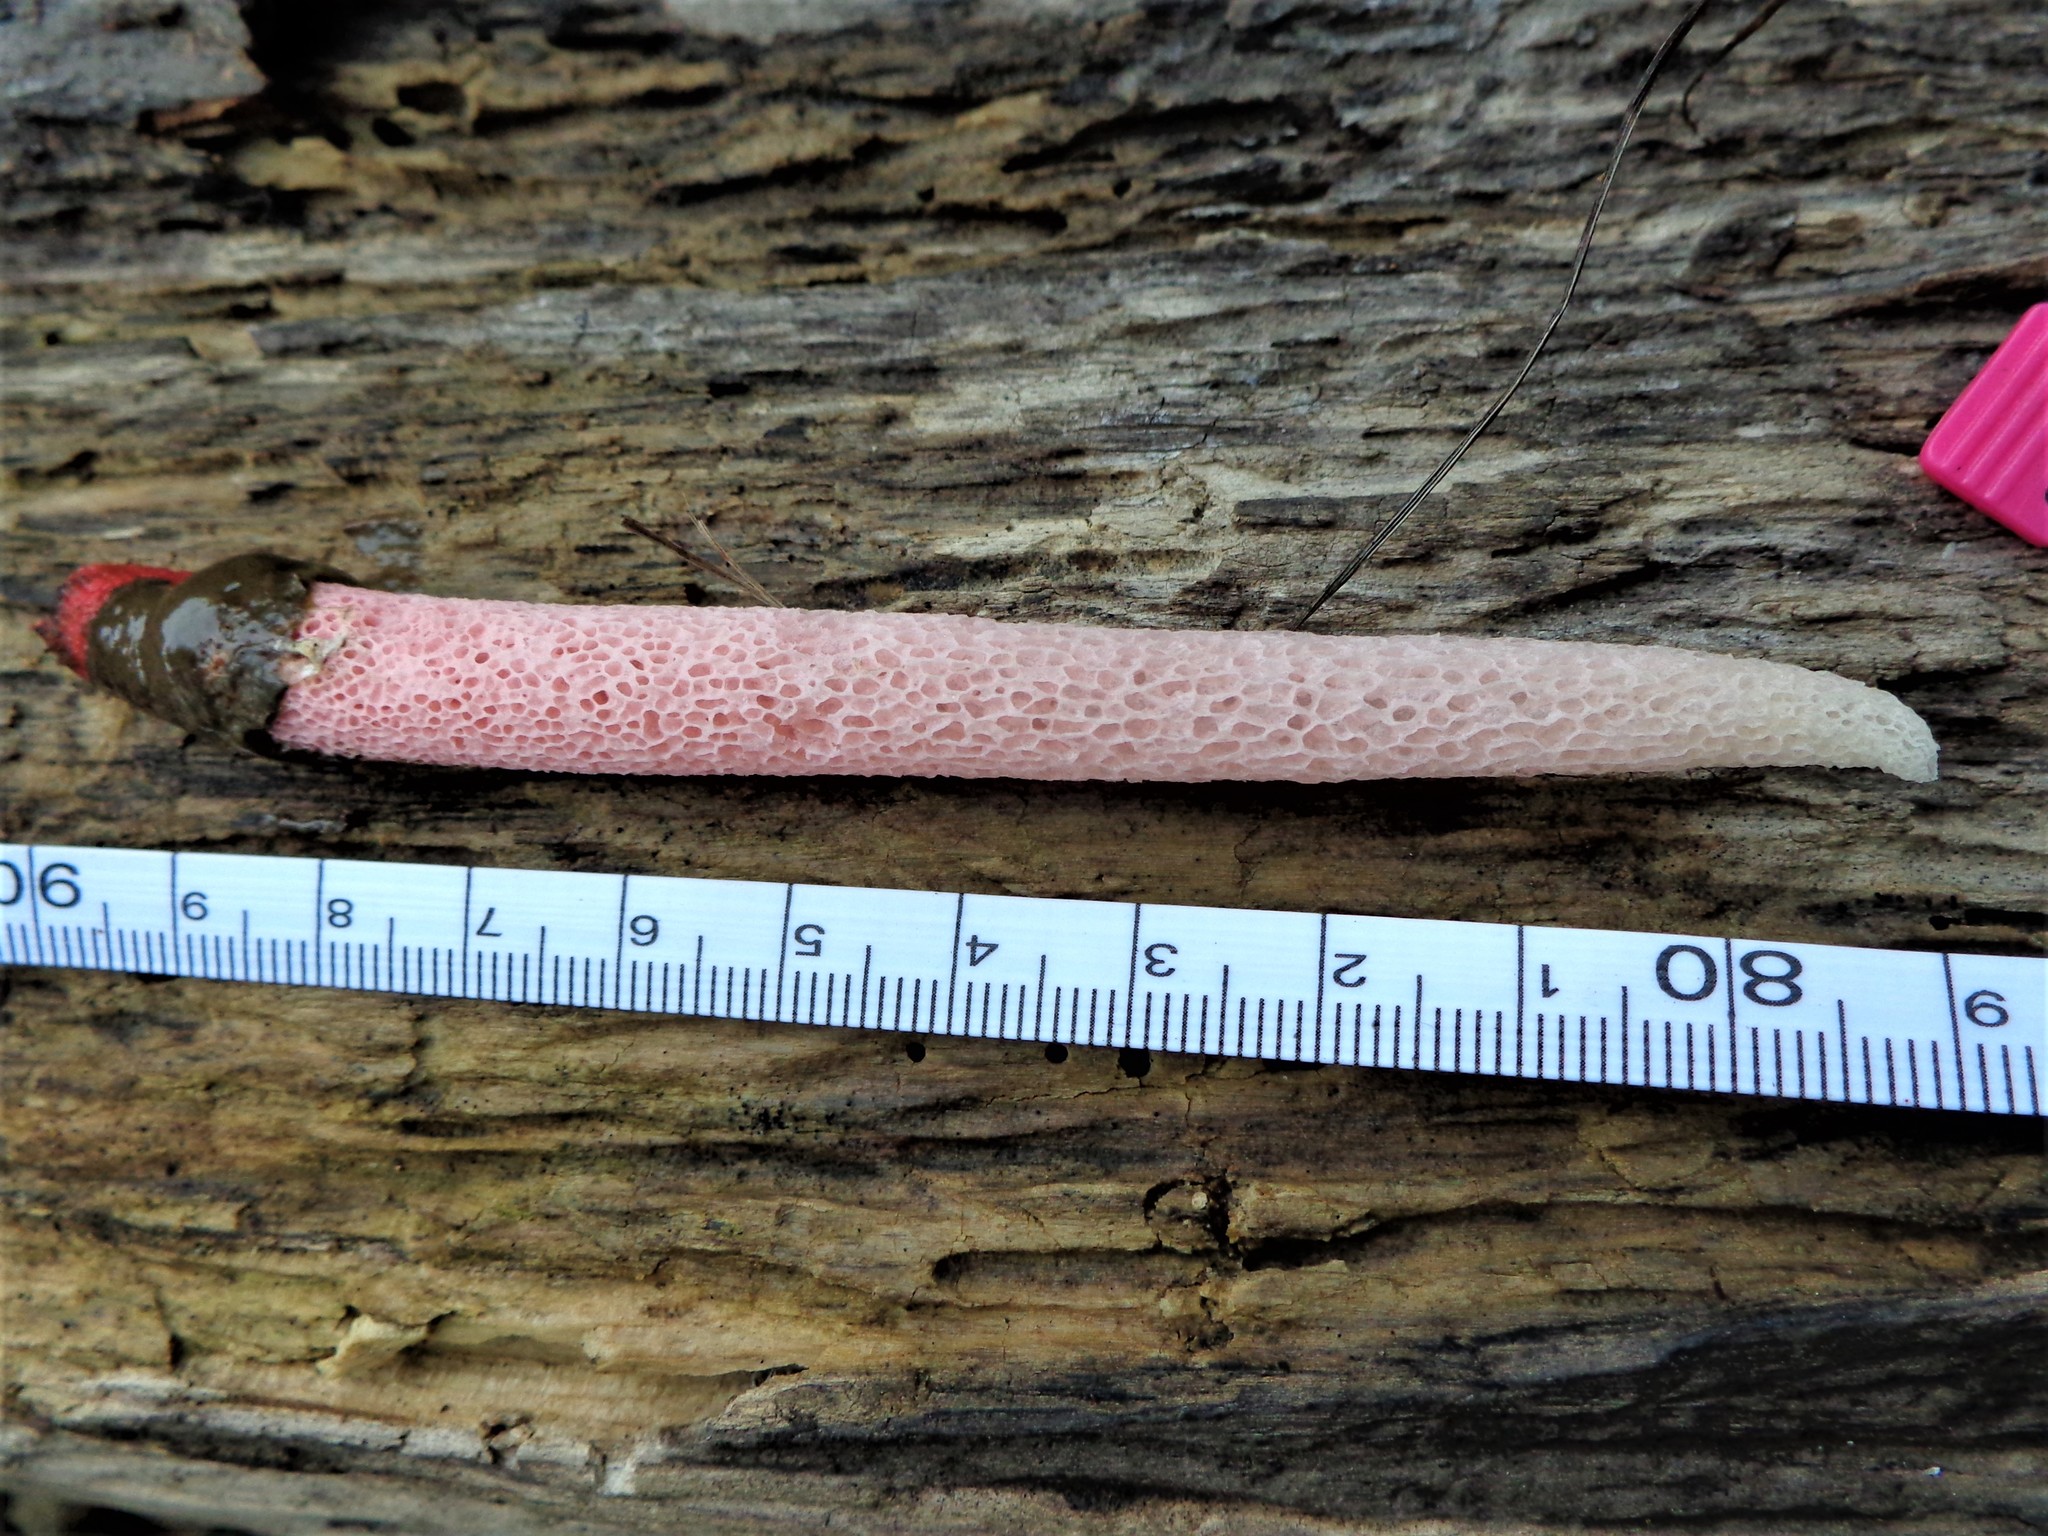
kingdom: Fungi
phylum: Basidiomycota
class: Agaricomycetes
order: Phallales
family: Phallaceae
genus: Mutinus
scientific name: Mutinus ravenelii
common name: Red stinkhorn
